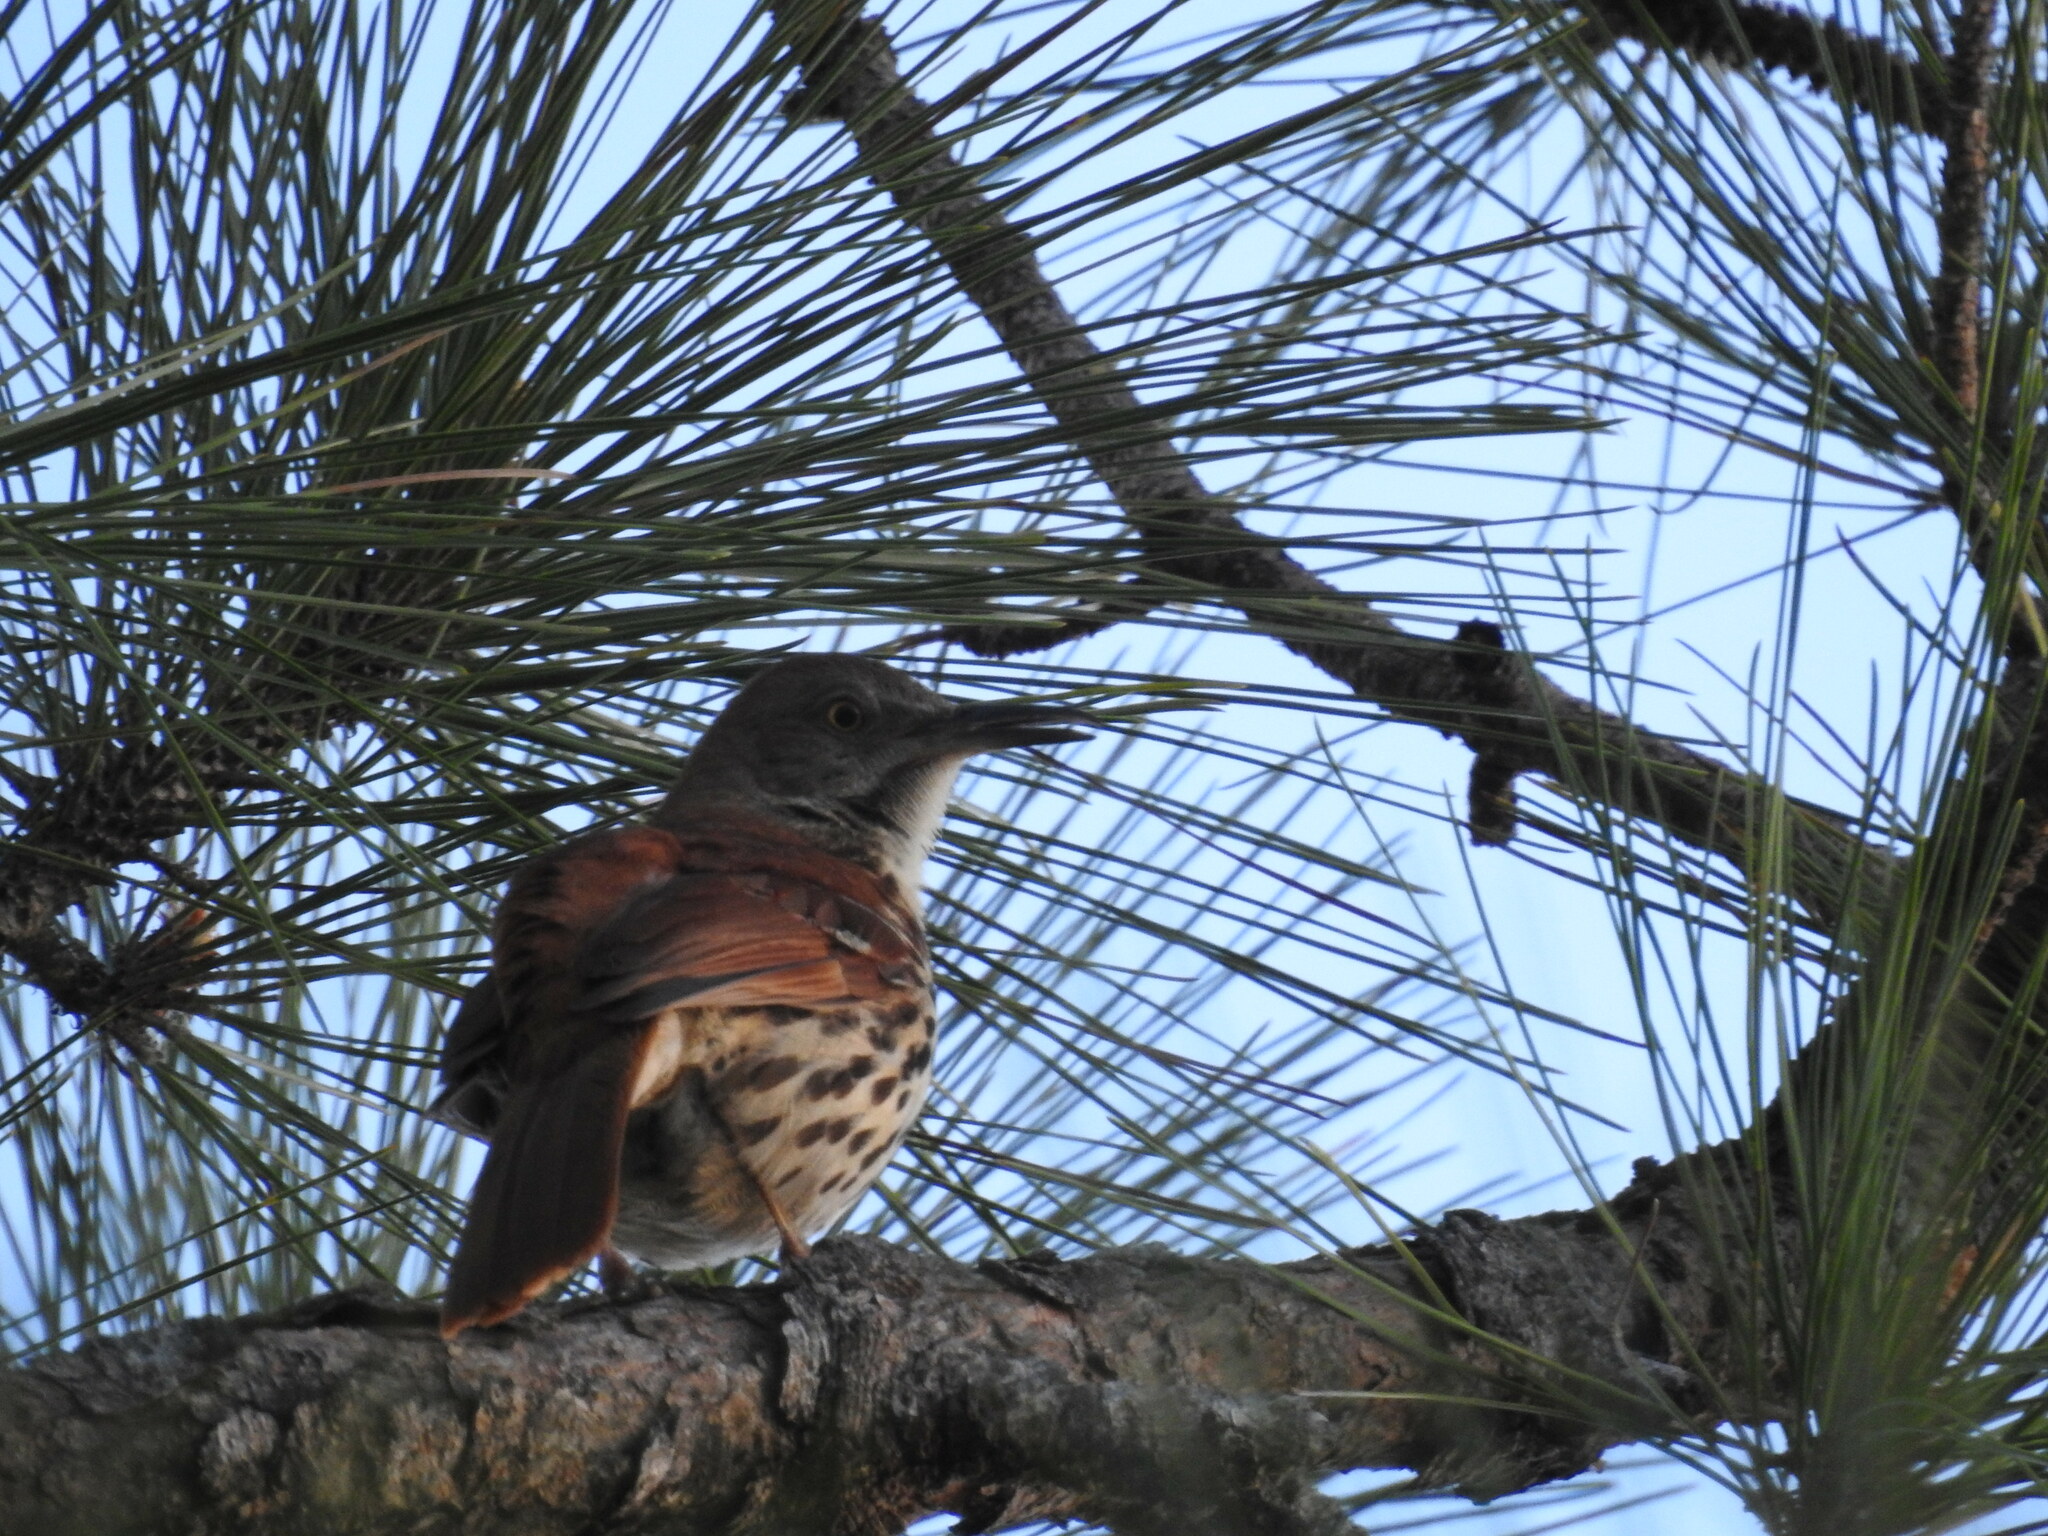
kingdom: Animalia
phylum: Chordata
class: Aves
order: Passeriformes
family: Mimidae
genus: Toxostoma
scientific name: Toxostoma rufum
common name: Brown thrasher
